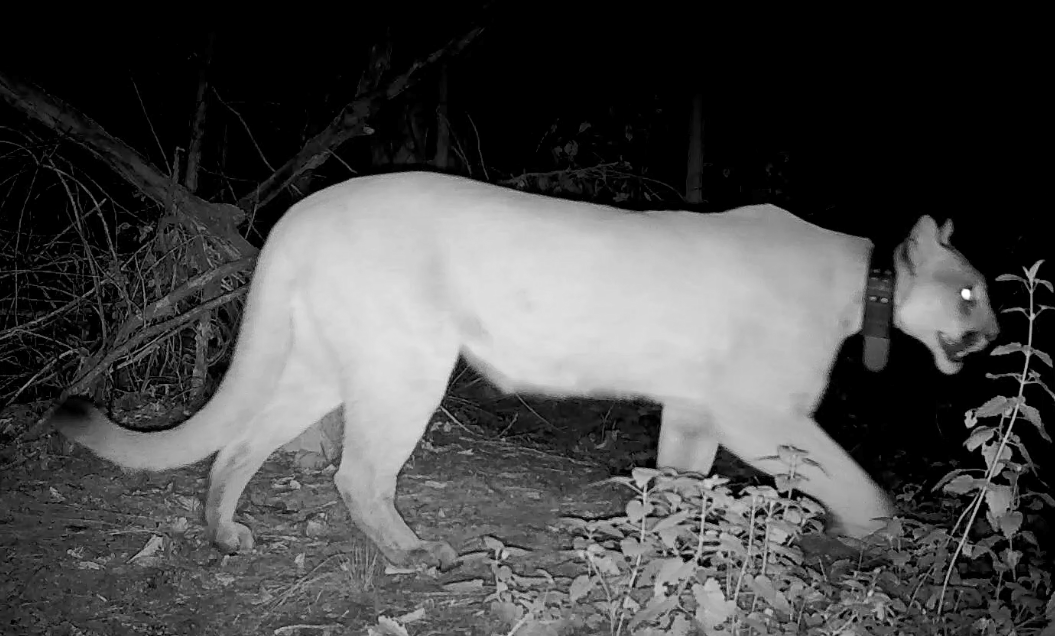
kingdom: Animalia
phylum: Chordata
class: Mammalia
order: Carnivora
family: Felidae
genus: Puma
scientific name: Puma concolor
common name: Puma
